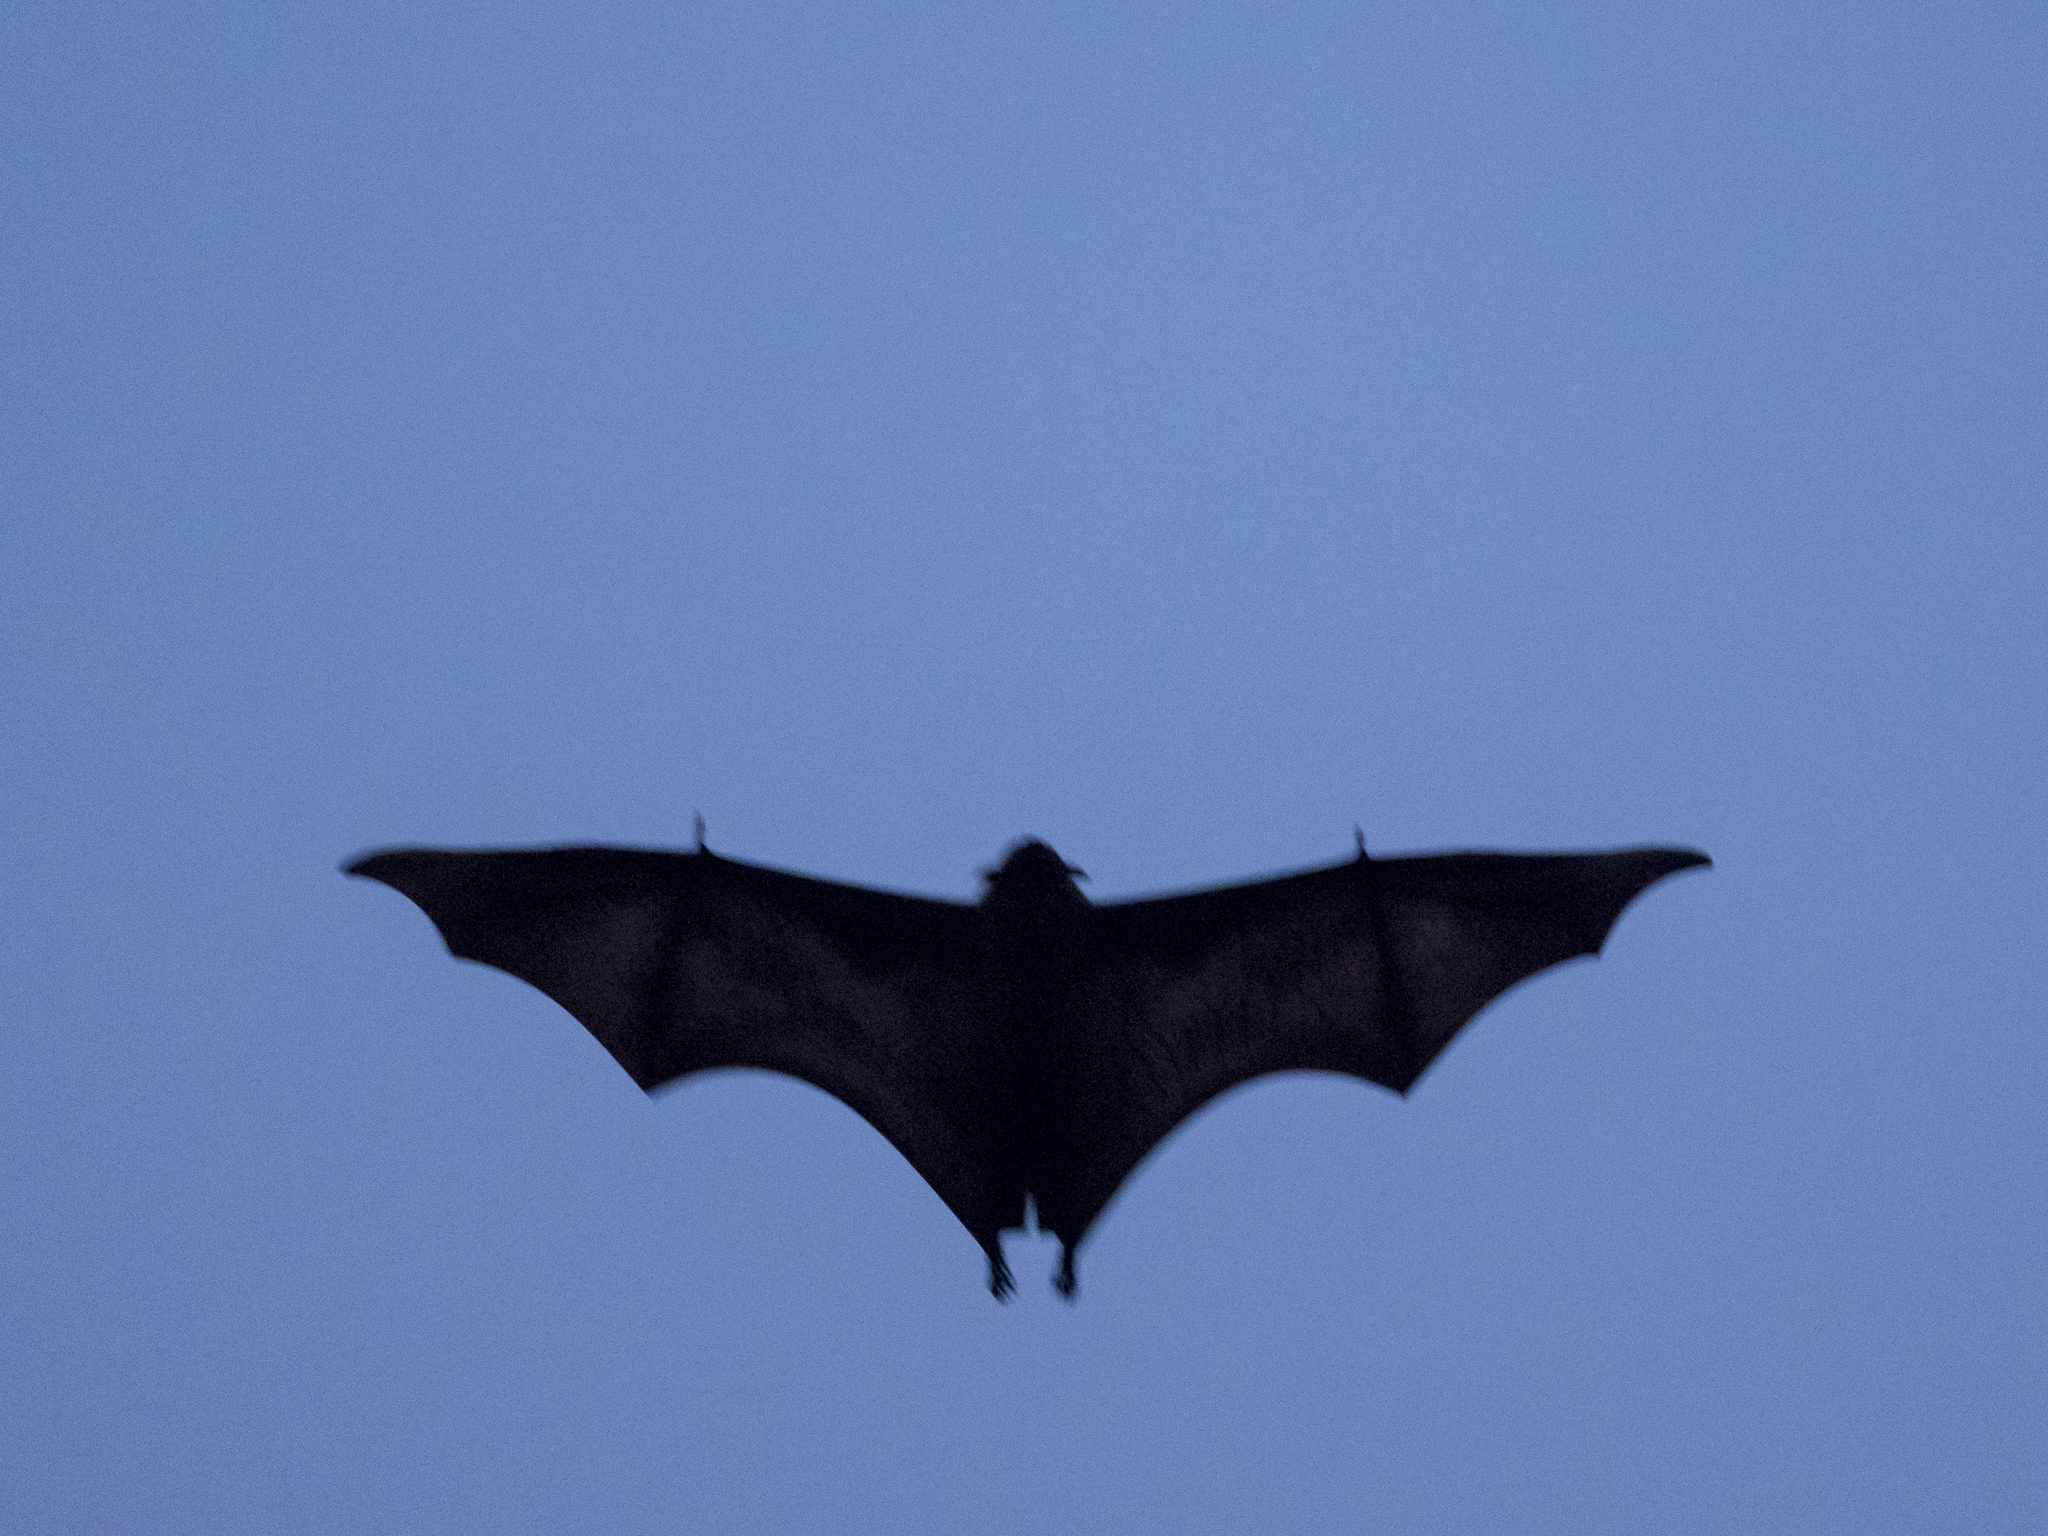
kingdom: Animalia
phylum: Chordata
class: Mammalia
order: Chiroptera
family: Pteropodidae
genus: Pteropus
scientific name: Pteropus vampyrus
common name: Large flying fox
